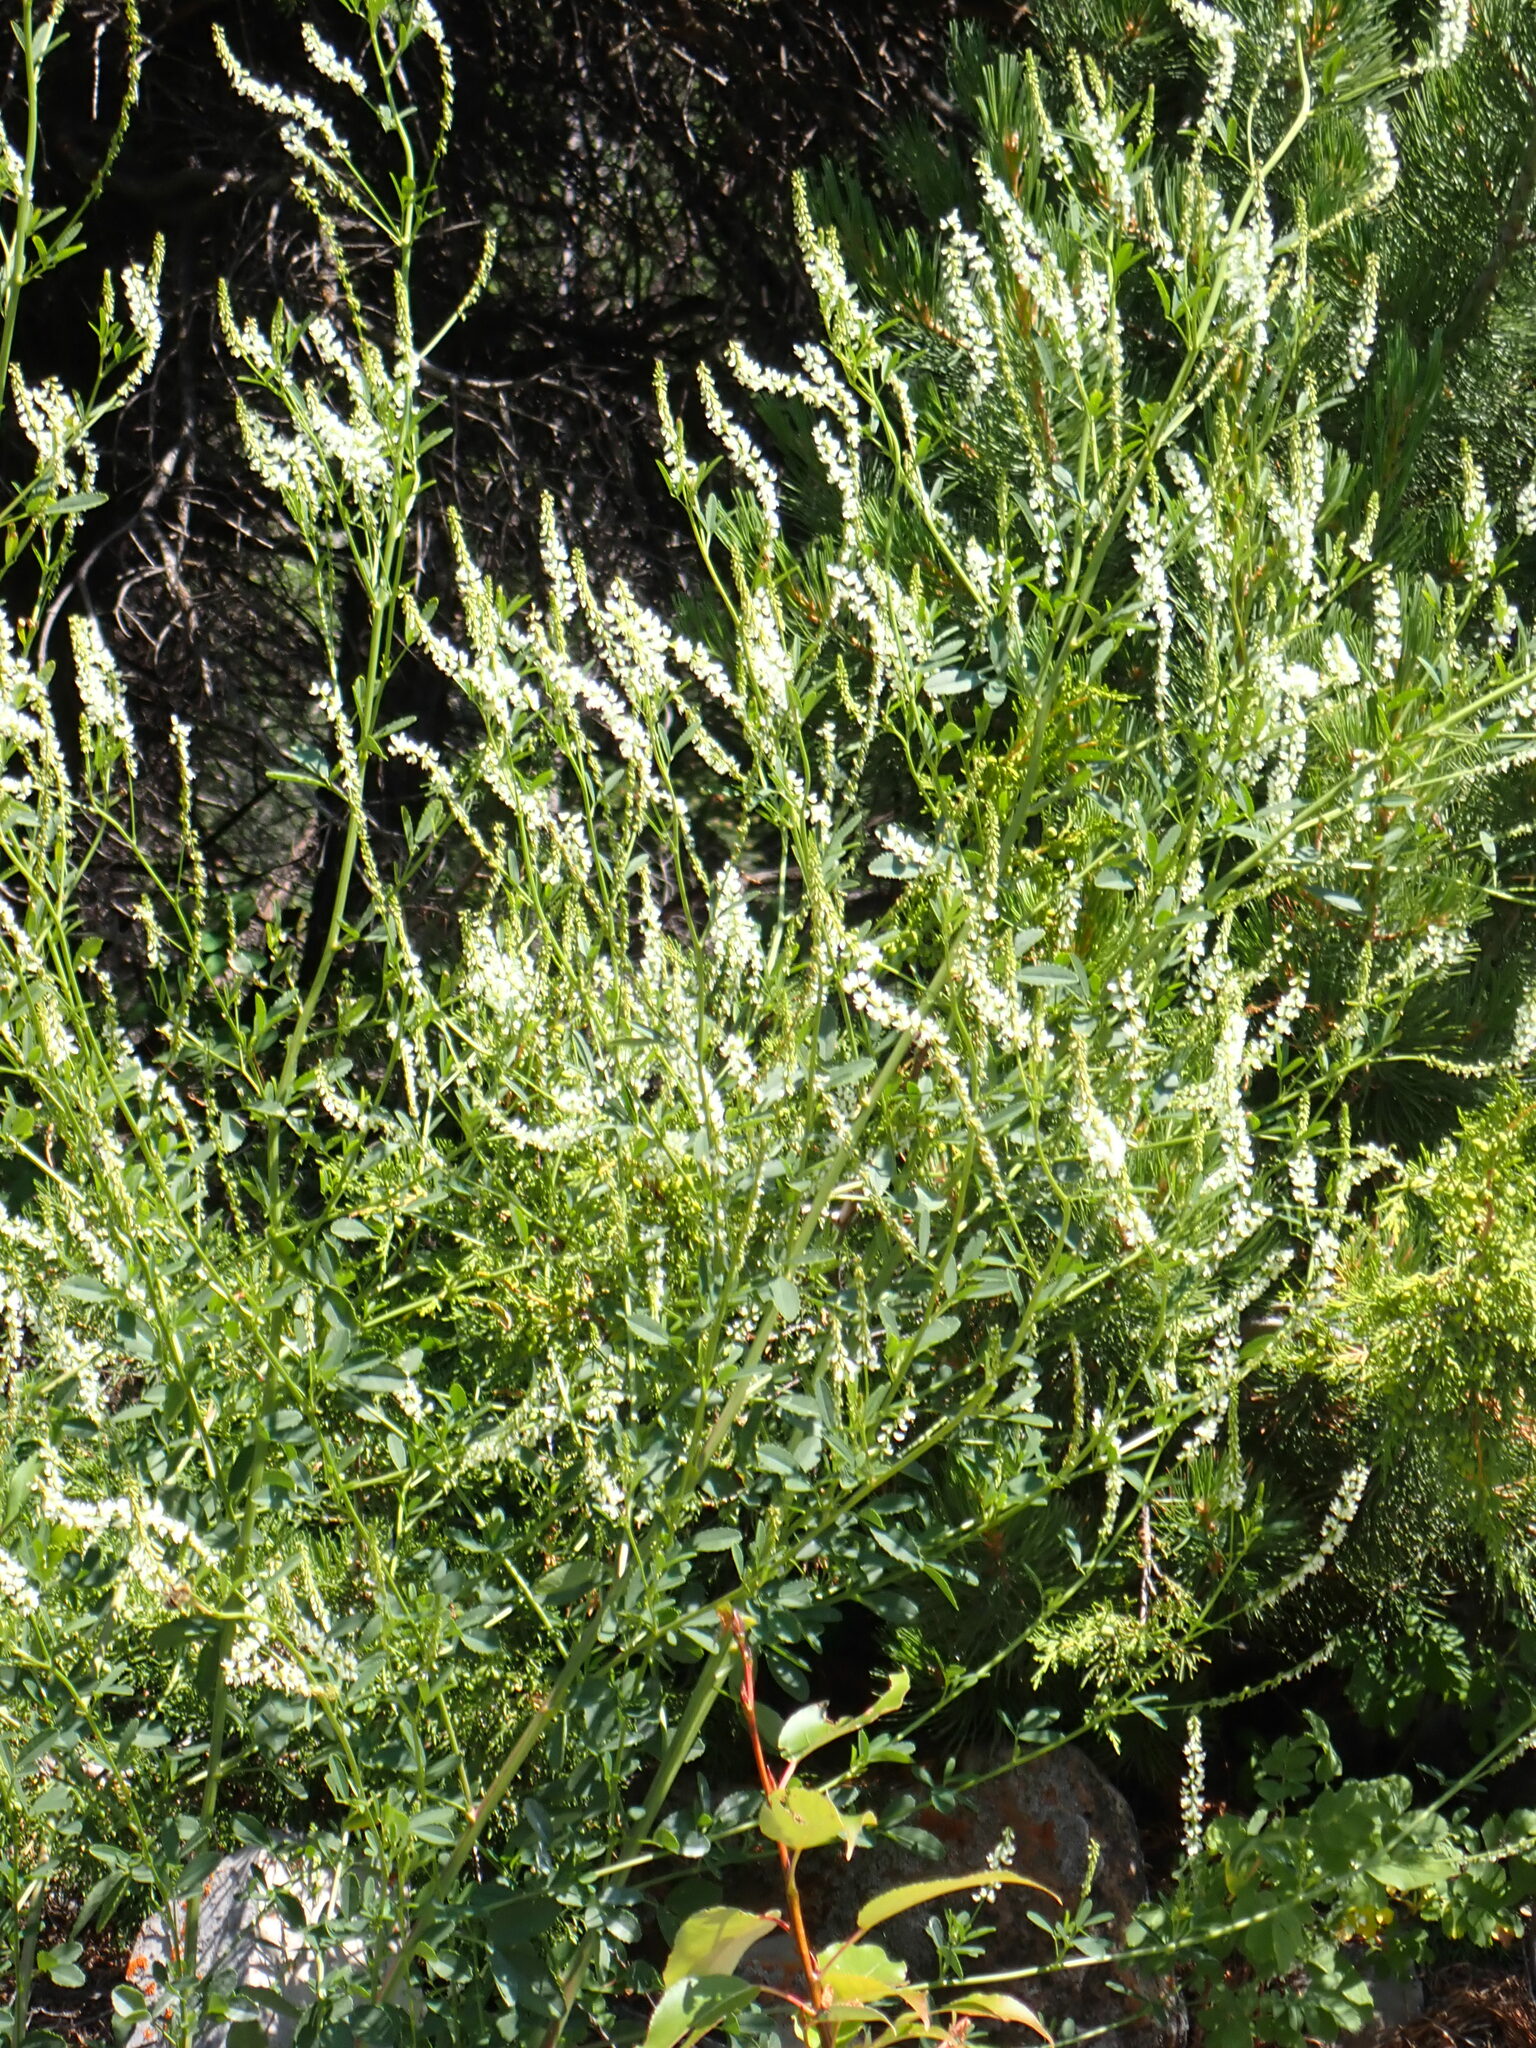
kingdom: Plantae
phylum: Tracheophyta
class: Magnoliopsida
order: Fabales
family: Fabaceae
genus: Melilotus
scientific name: Melilotus albus
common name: White melilot
